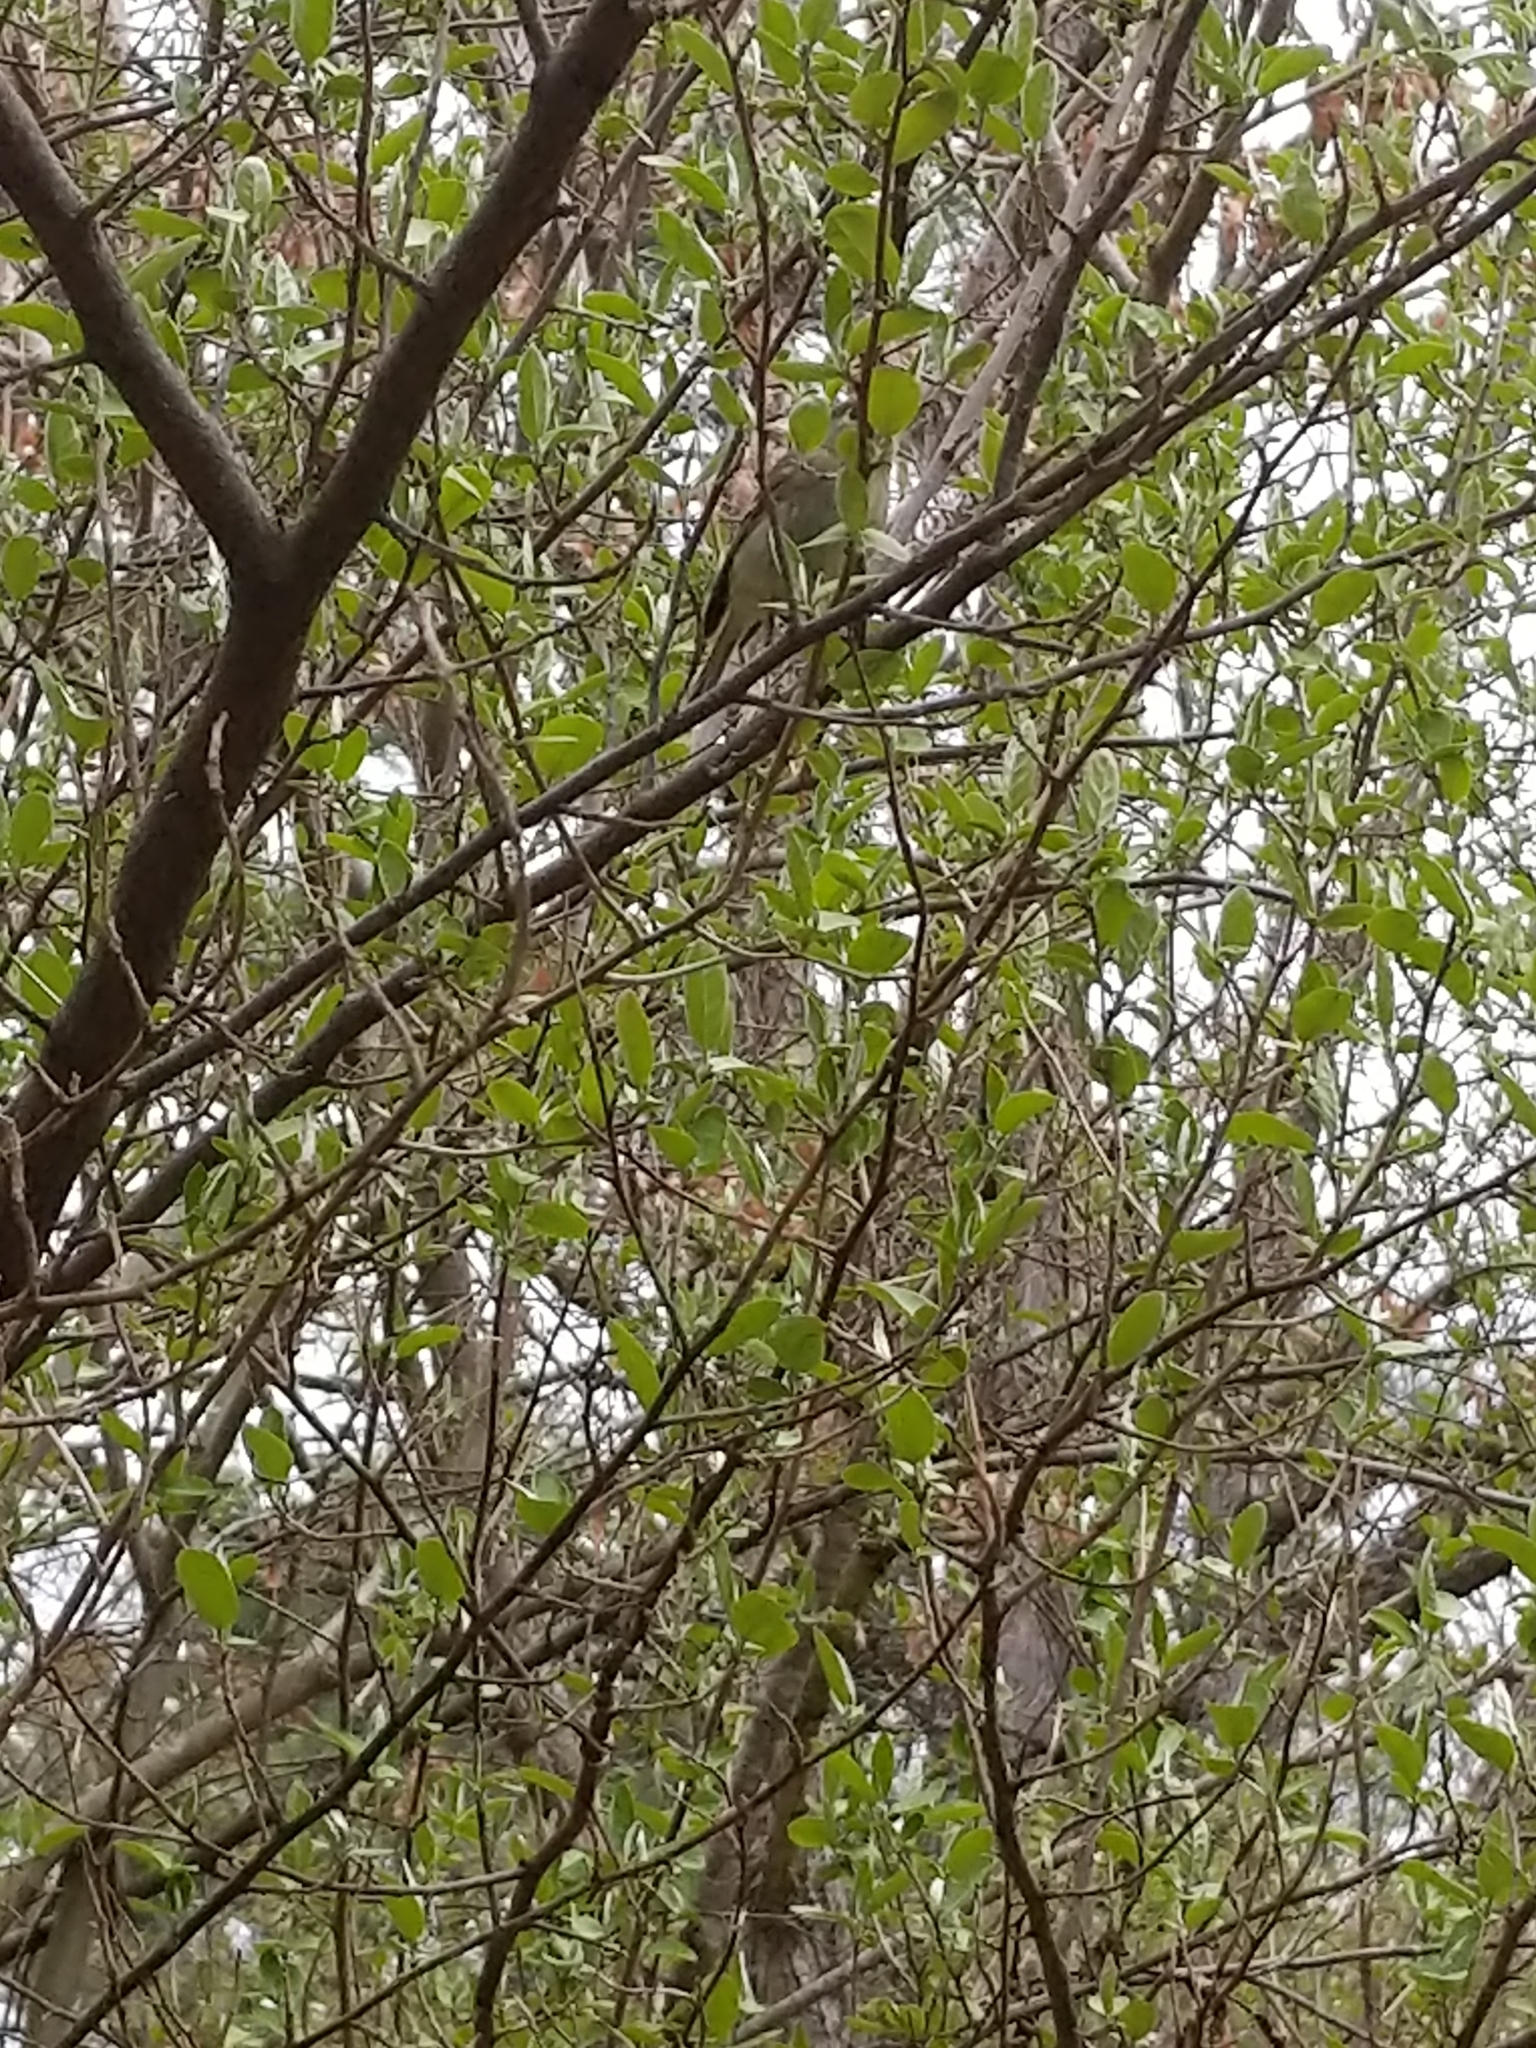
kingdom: Animalia
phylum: Chordata
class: Aves
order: Passeriformes
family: Regulidae
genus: Regulus
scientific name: Regulus calendula
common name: Ruby-crowned kinglet
